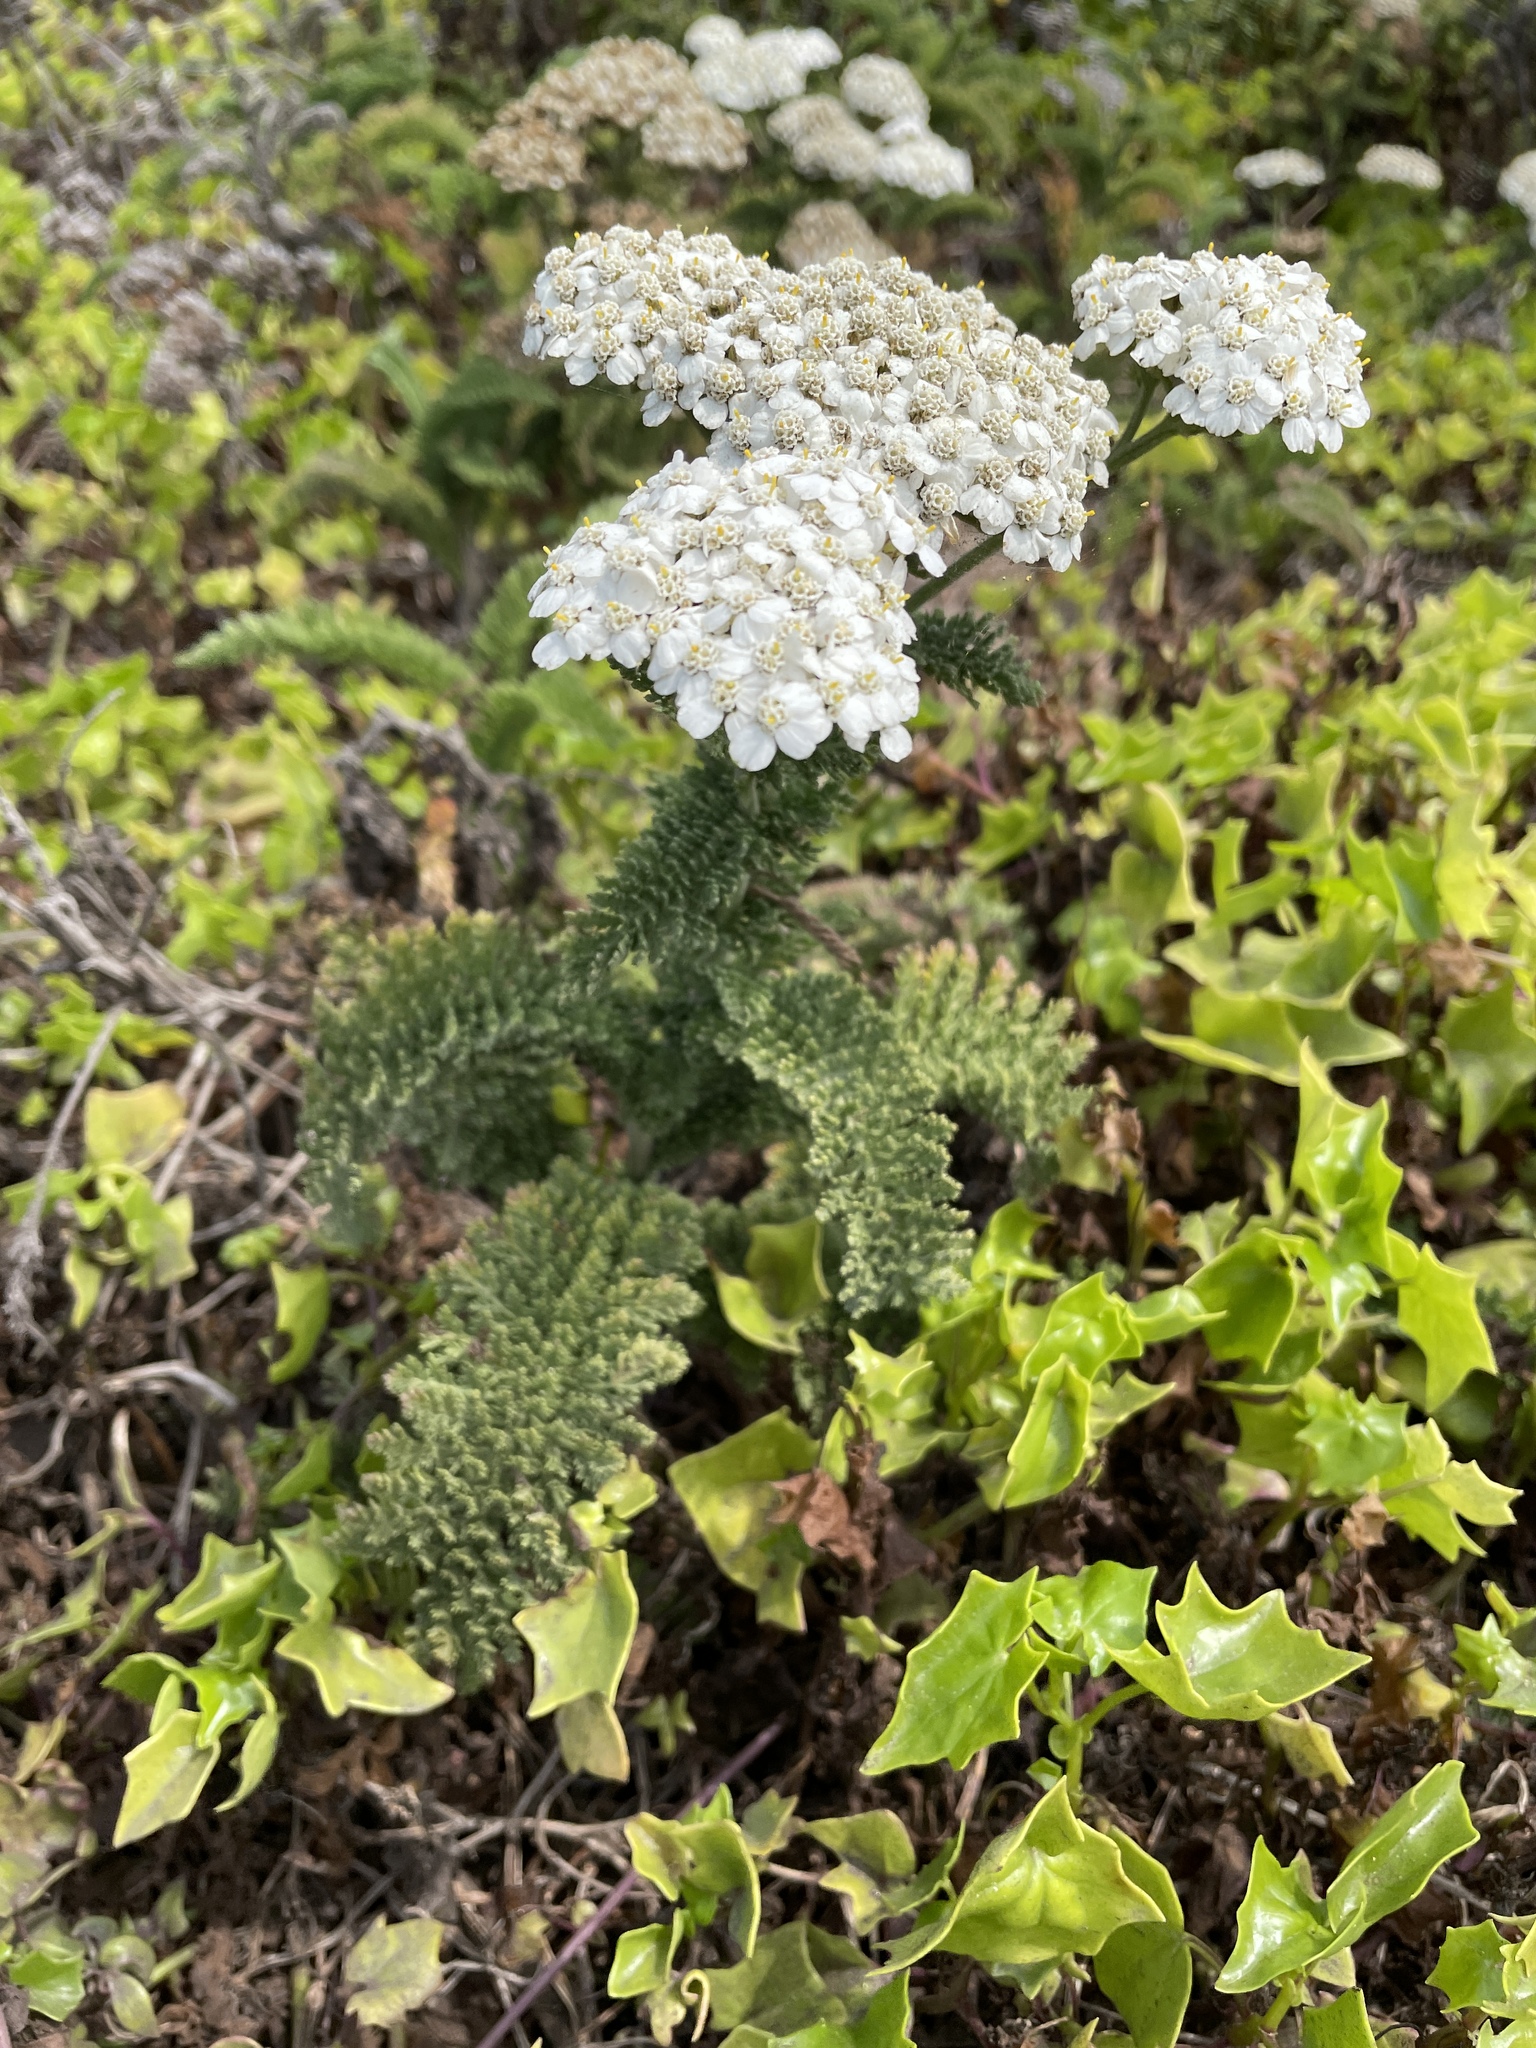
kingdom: Plantae
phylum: Tracheophyta
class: Magnoliopsida
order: Asterales
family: Asteraceae
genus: Achillea
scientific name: Achillea millefolium
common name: Yarrow
